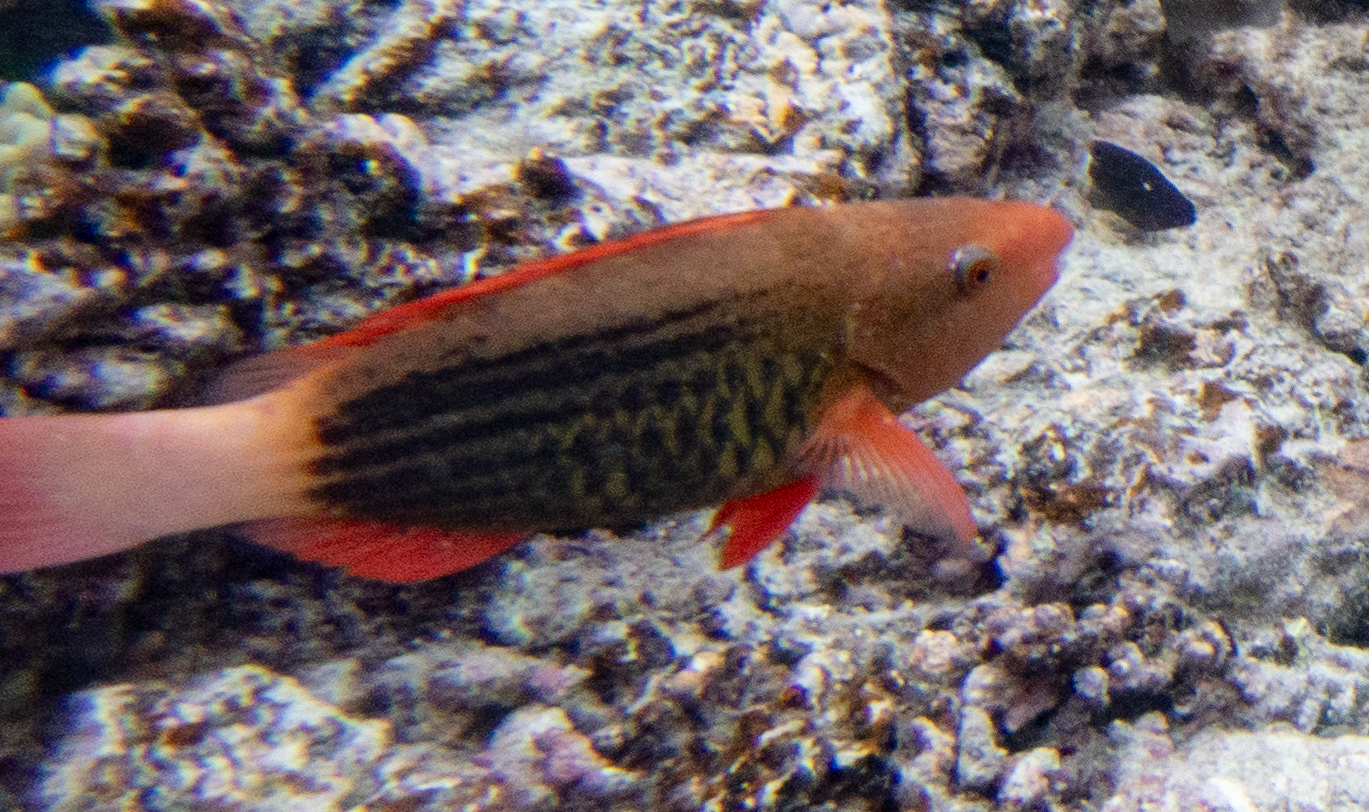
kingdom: Animalia
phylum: Chordata
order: Perciformes
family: Scaridae
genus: Scarus
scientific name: Scarus frenatus
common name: Bridled parrotfish
